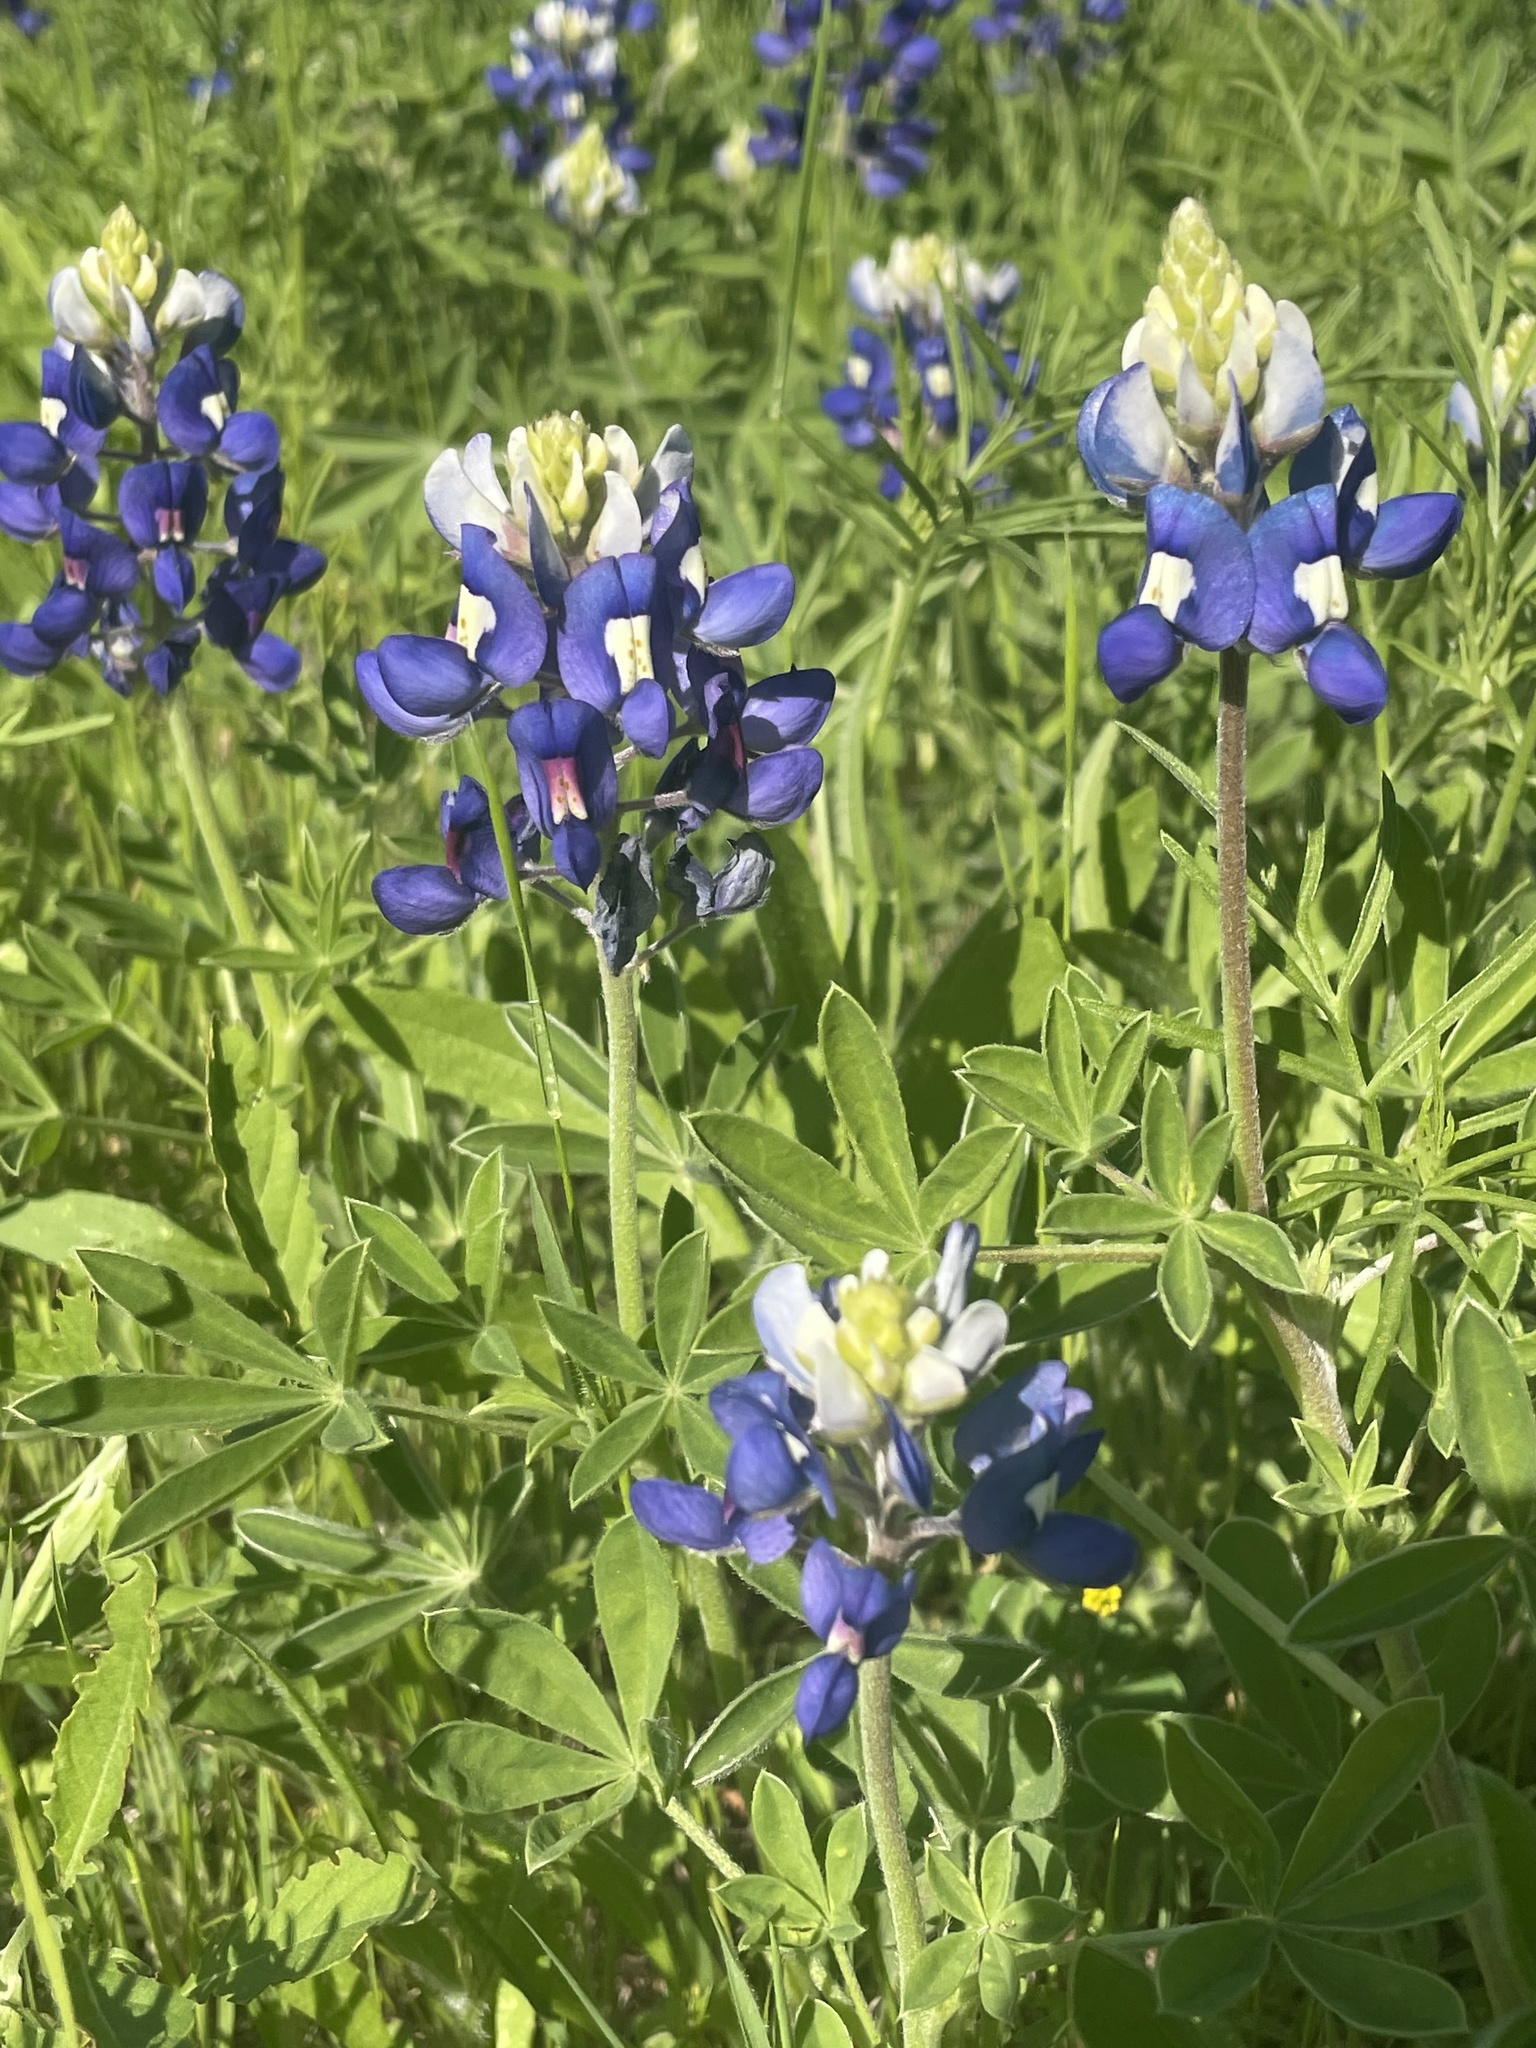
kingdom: Plantae
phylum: Tracheophyta
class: Magnoliopsida
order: Fabales
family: Fabaceae
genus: Lupinus
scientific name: Lupinus texensis
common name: Texas bluebonnet
